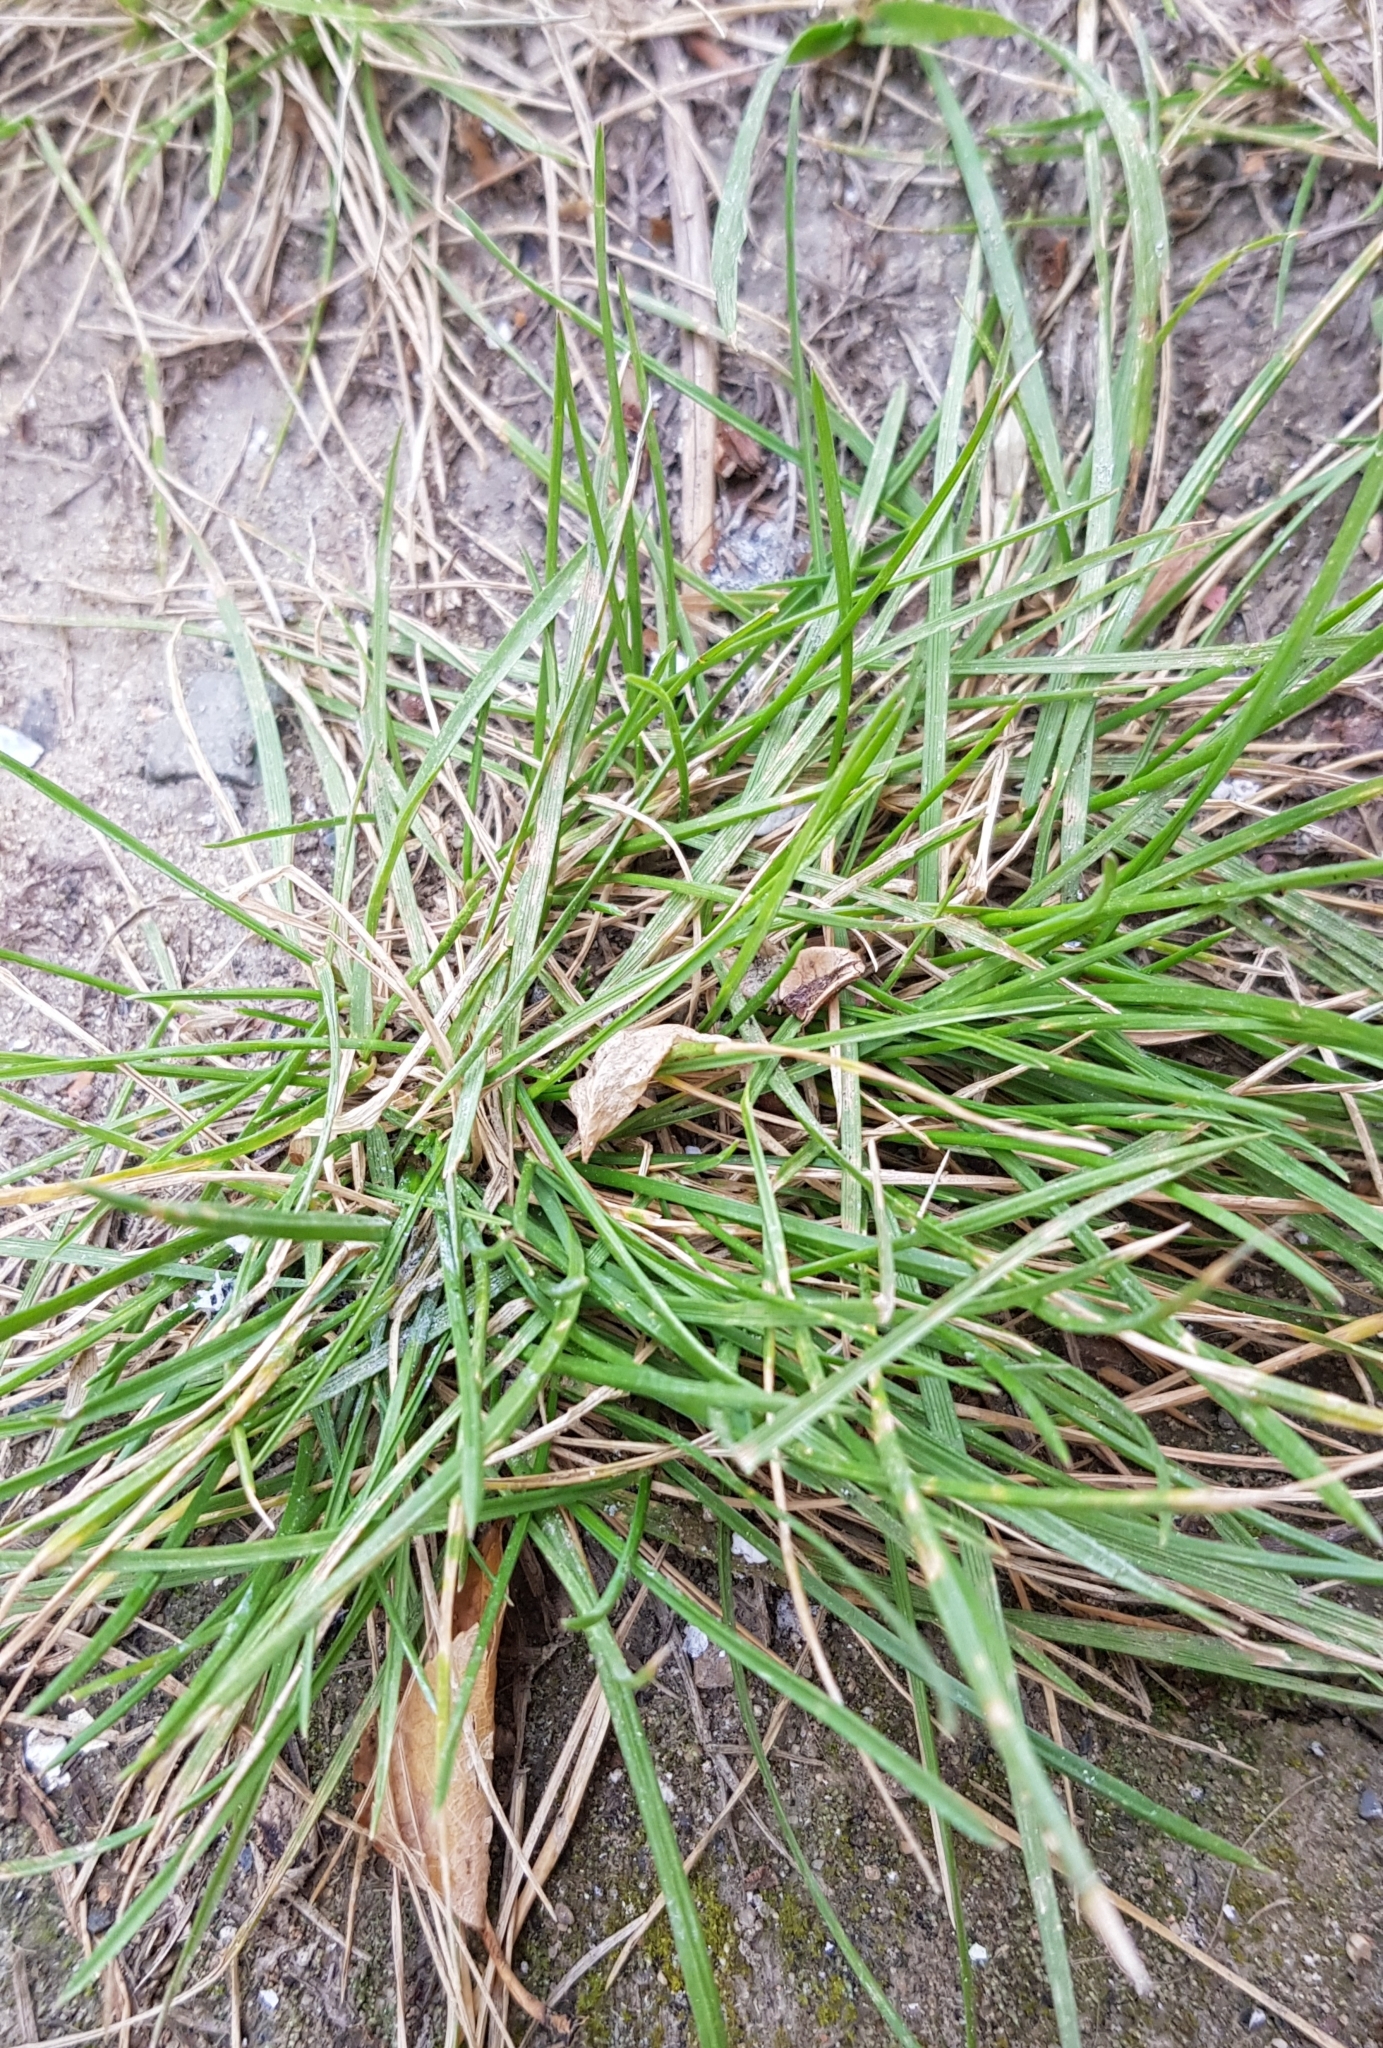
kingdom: Plantae
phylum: Tracheophyta
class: Liliopsida
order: Poales
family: Poaceae
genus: Puccinellia
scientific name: Puccinellia distans
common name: Weeping alkaligrass
